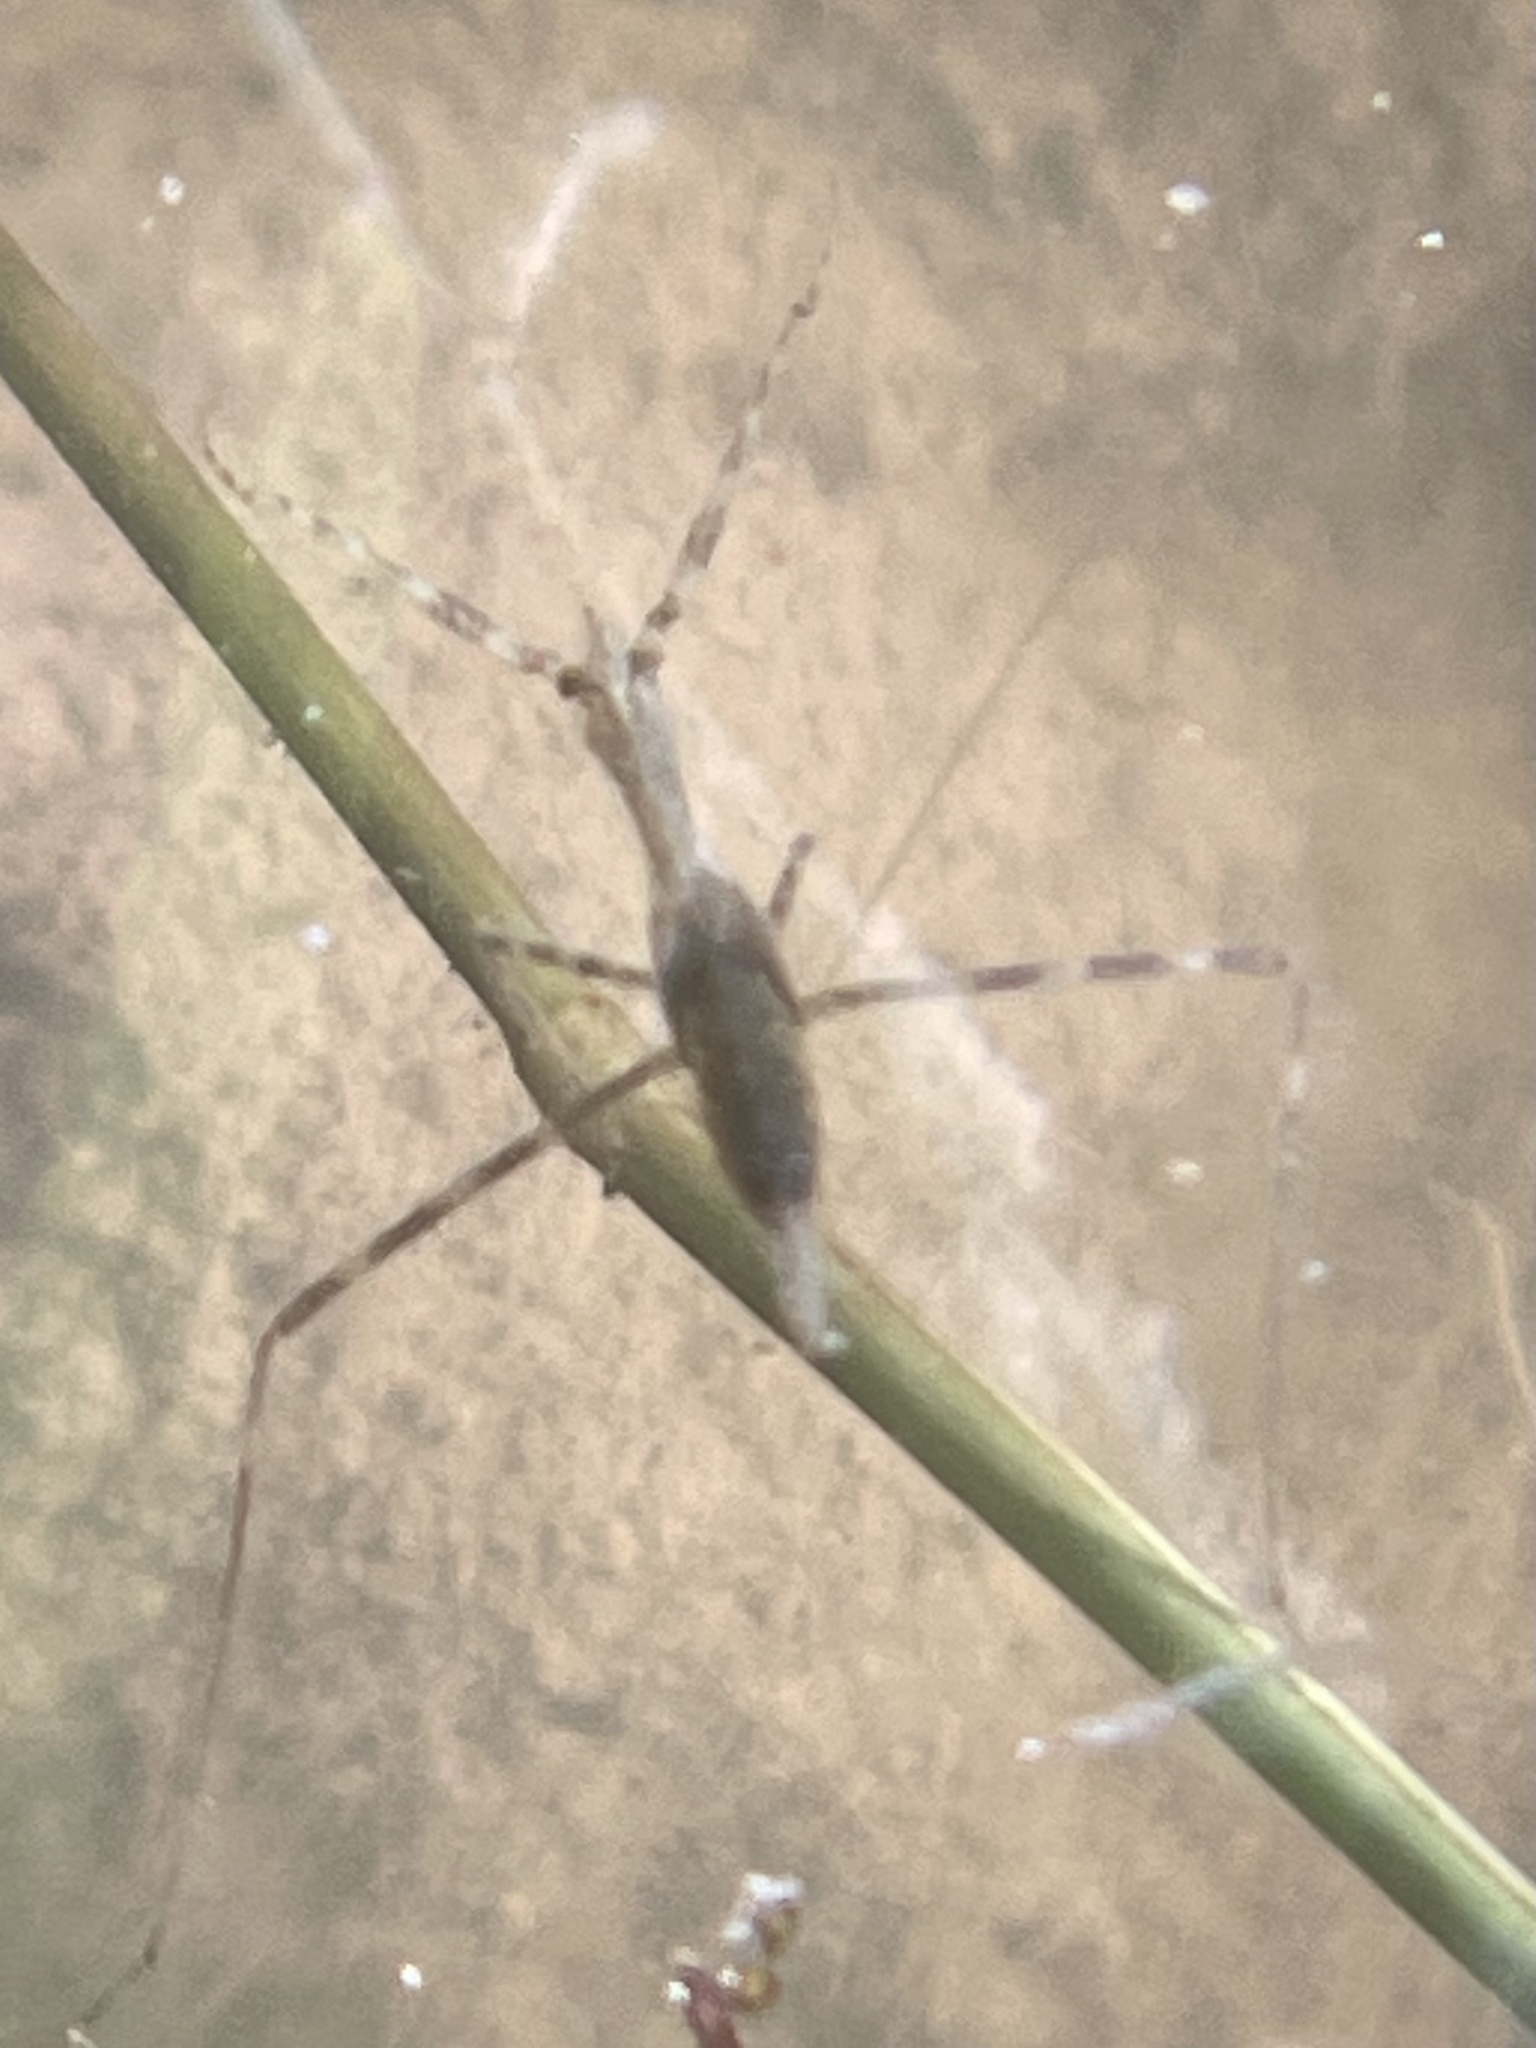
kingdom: Animalia
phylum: Arthropoda
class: Insecta
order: Hemiptera
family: Nepidae
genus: Ranatra
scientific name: Ranatra
